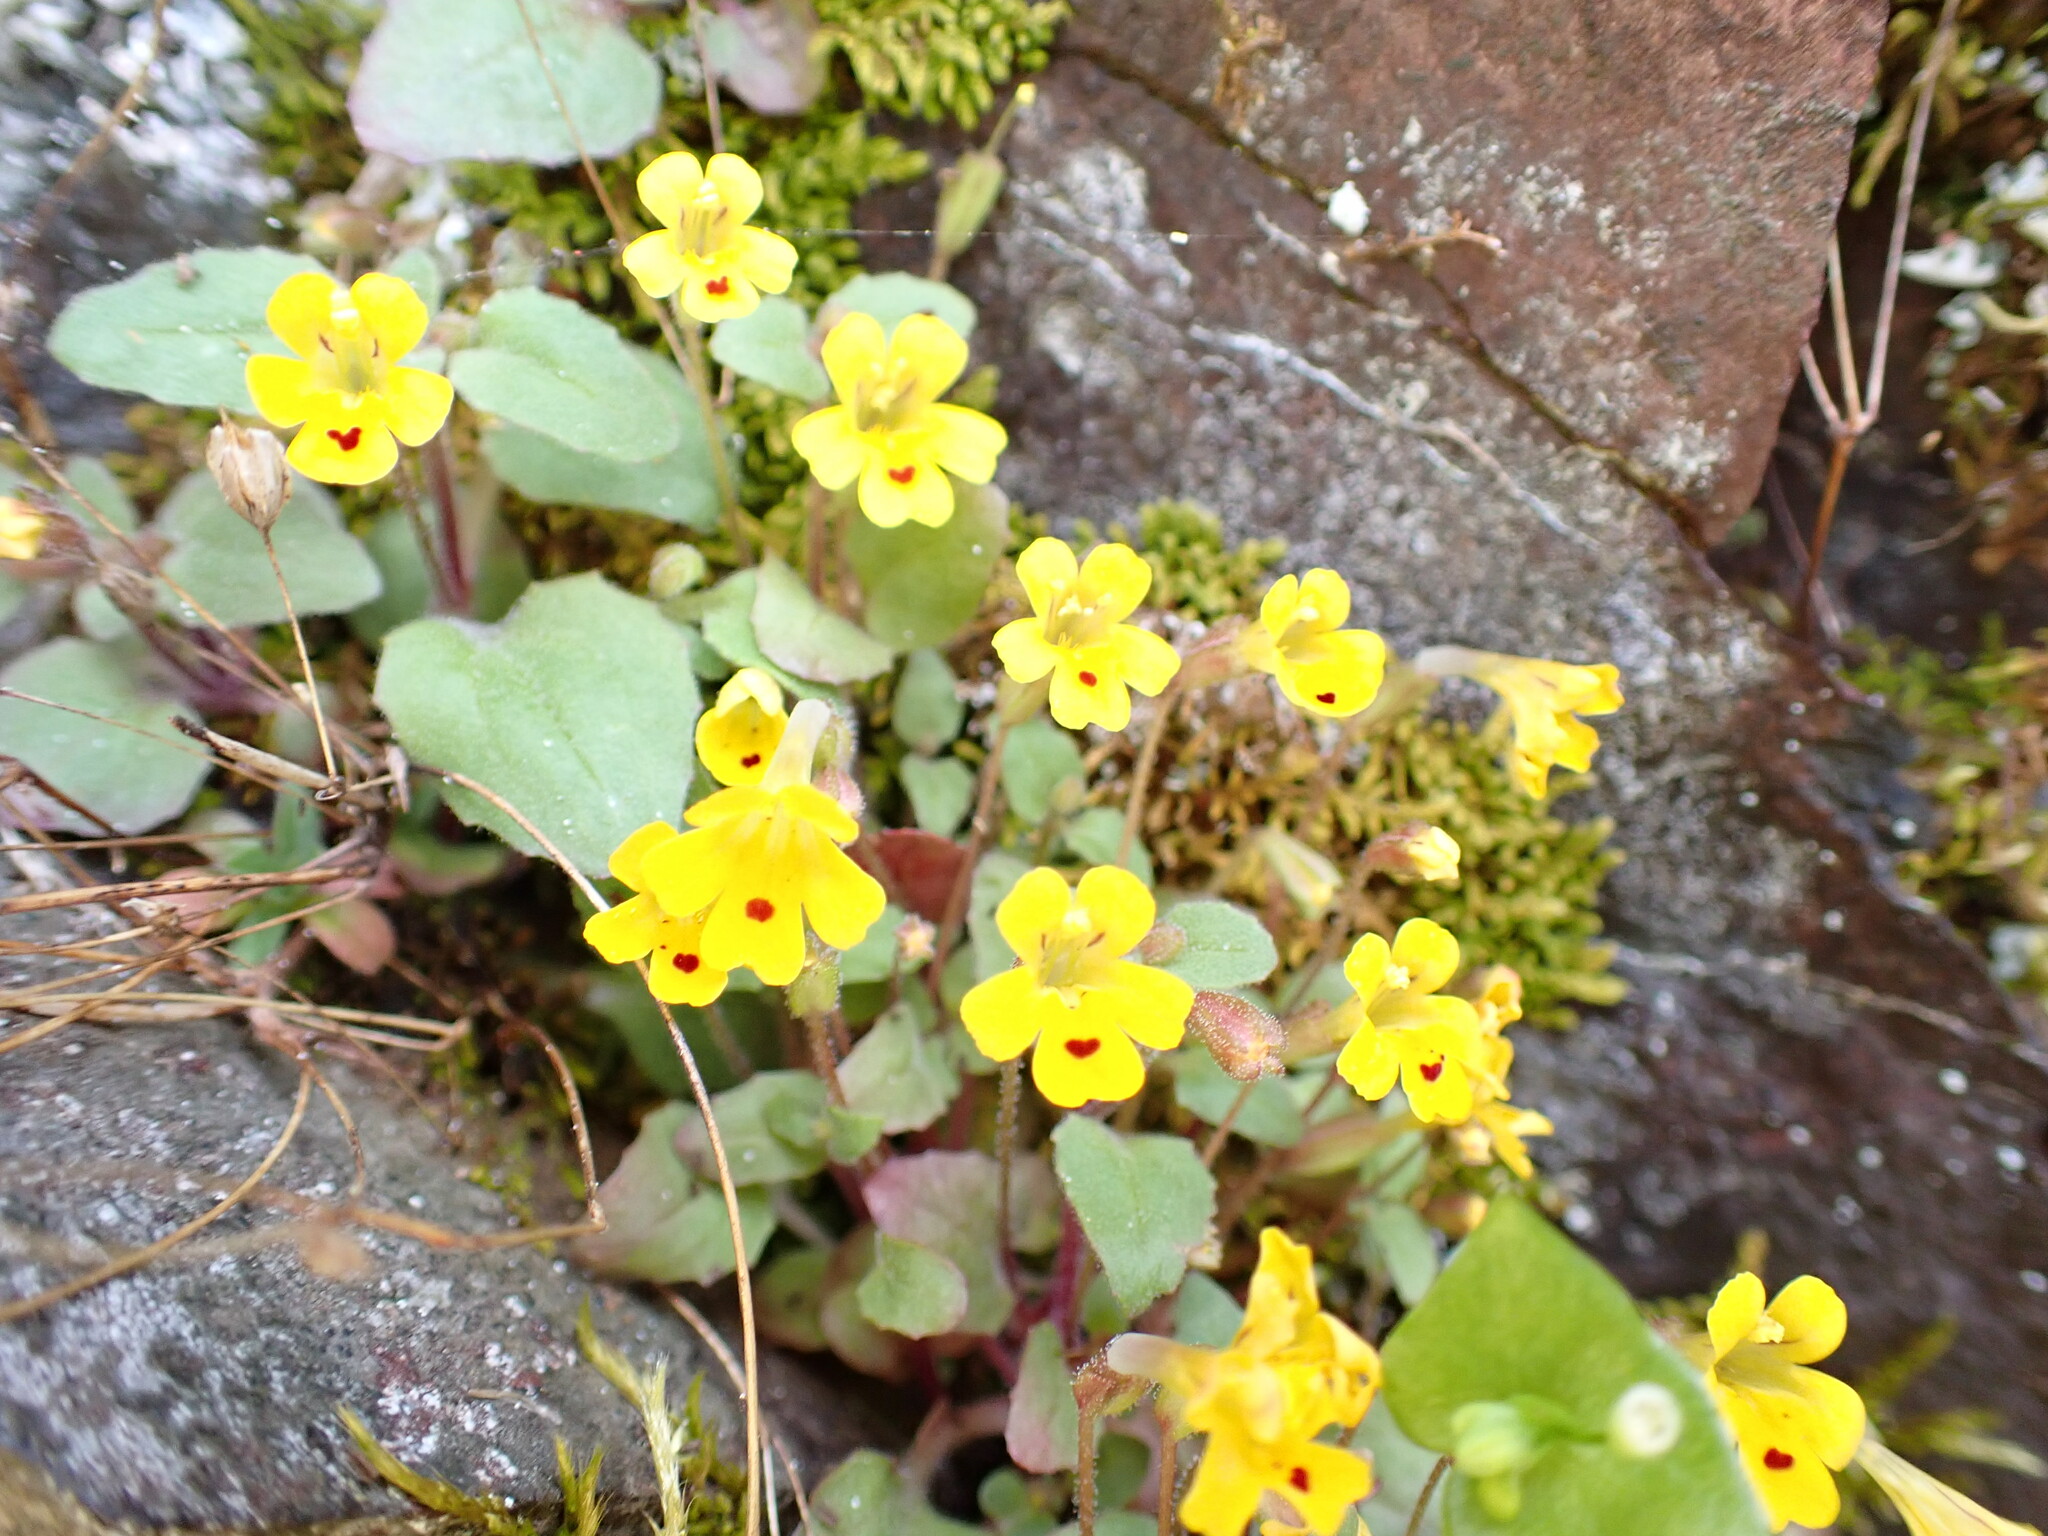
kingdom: Plantae
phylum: Tracheophyta
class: Magnoliopsida
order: Lamiales
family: Phrymaceae
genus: Erythranthe
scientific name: Erythranthe alsinoides
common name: Chickweed monkeyflower
